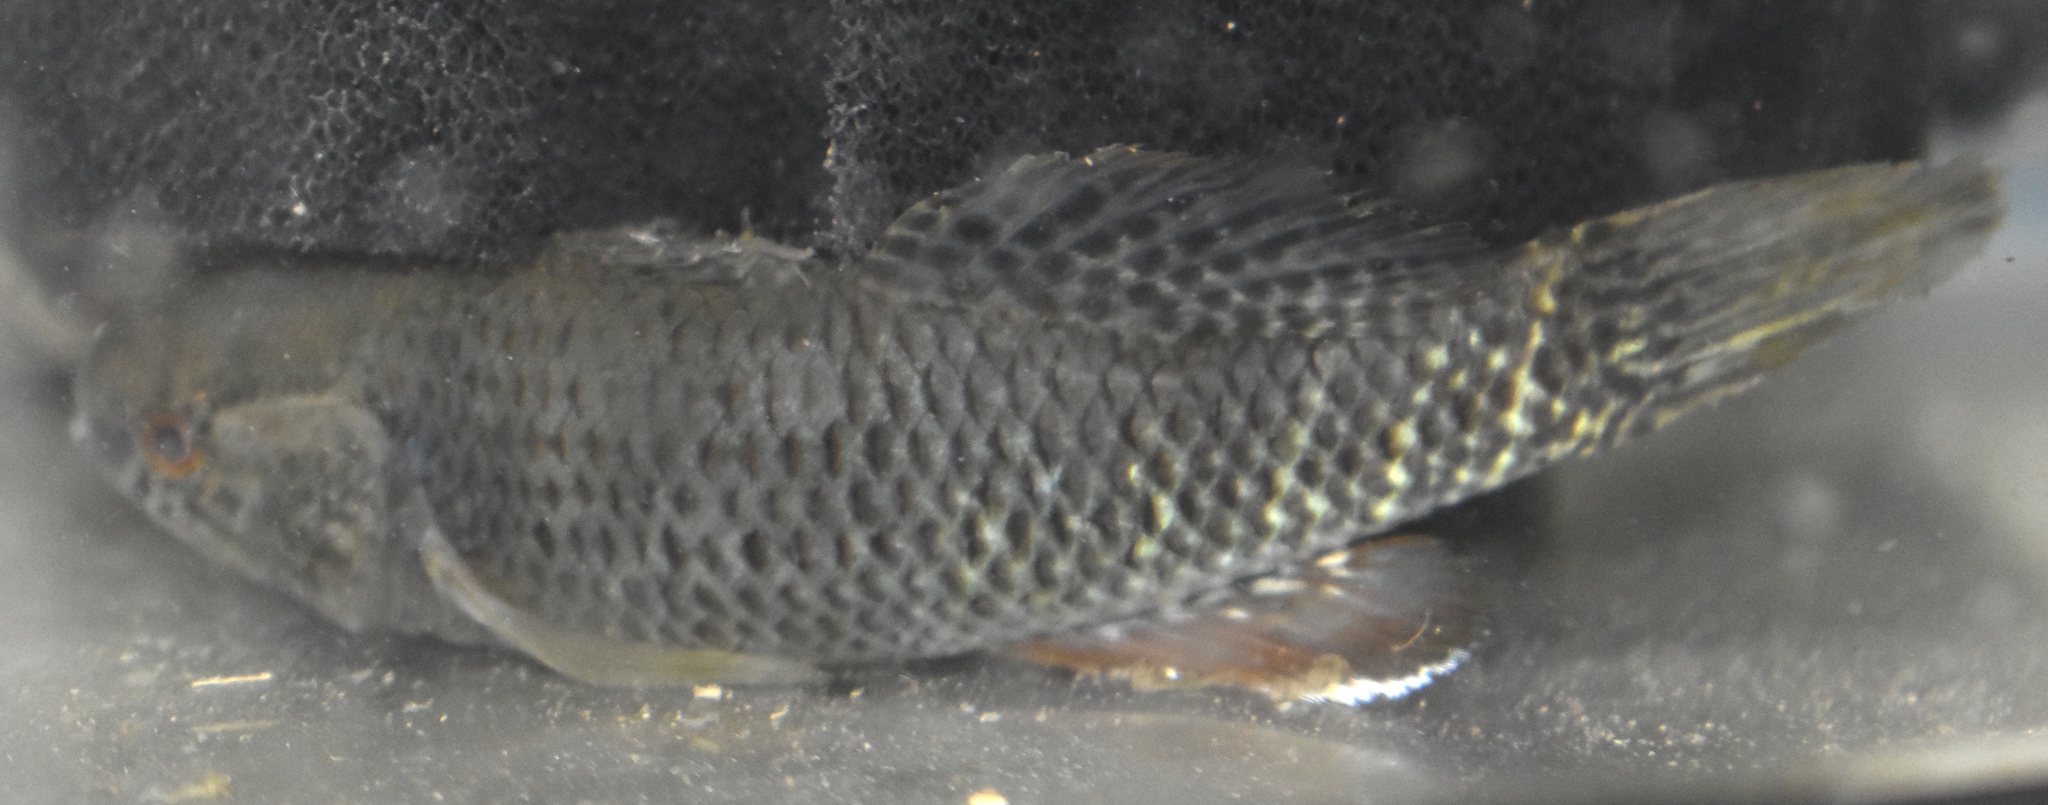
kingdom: Animalia
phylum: Chordata
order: Perciformes
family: Eleotridae
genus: Dormitator
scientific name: Dormitator maculatus
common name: Fat sleeper
